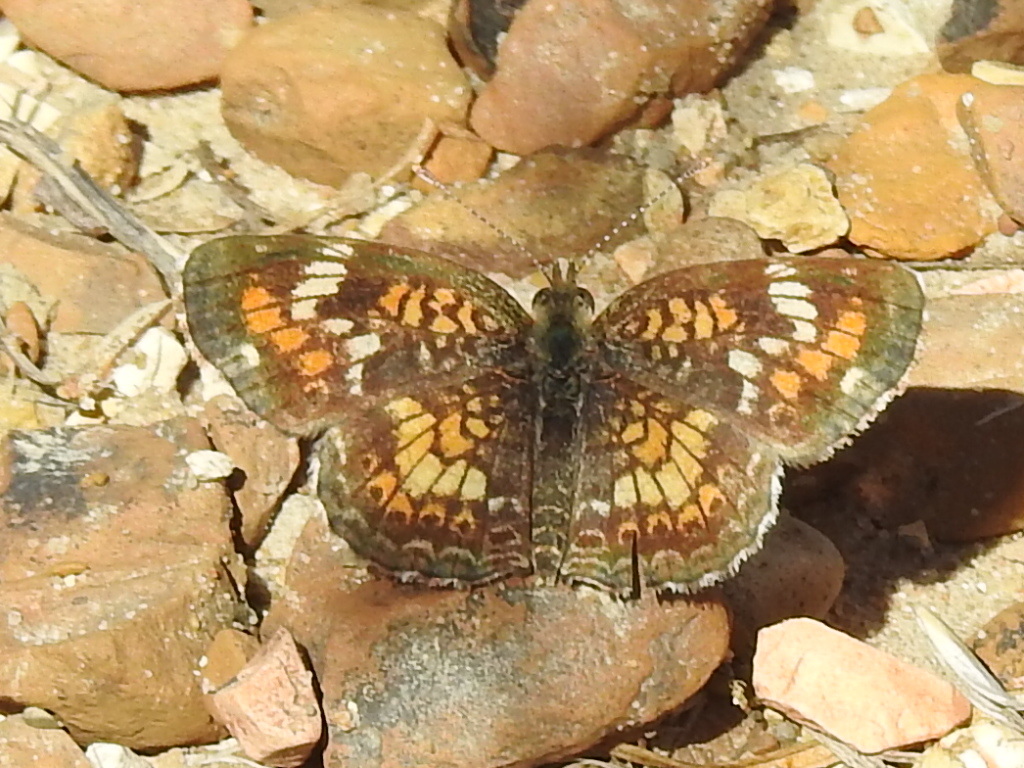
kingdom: Animalia
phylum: Arthropoda
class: Insecta
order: Lepidoptera
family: Nymphalidae
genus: Phyciodes
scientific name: Phyciodes phaon
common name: Phaon crescent
